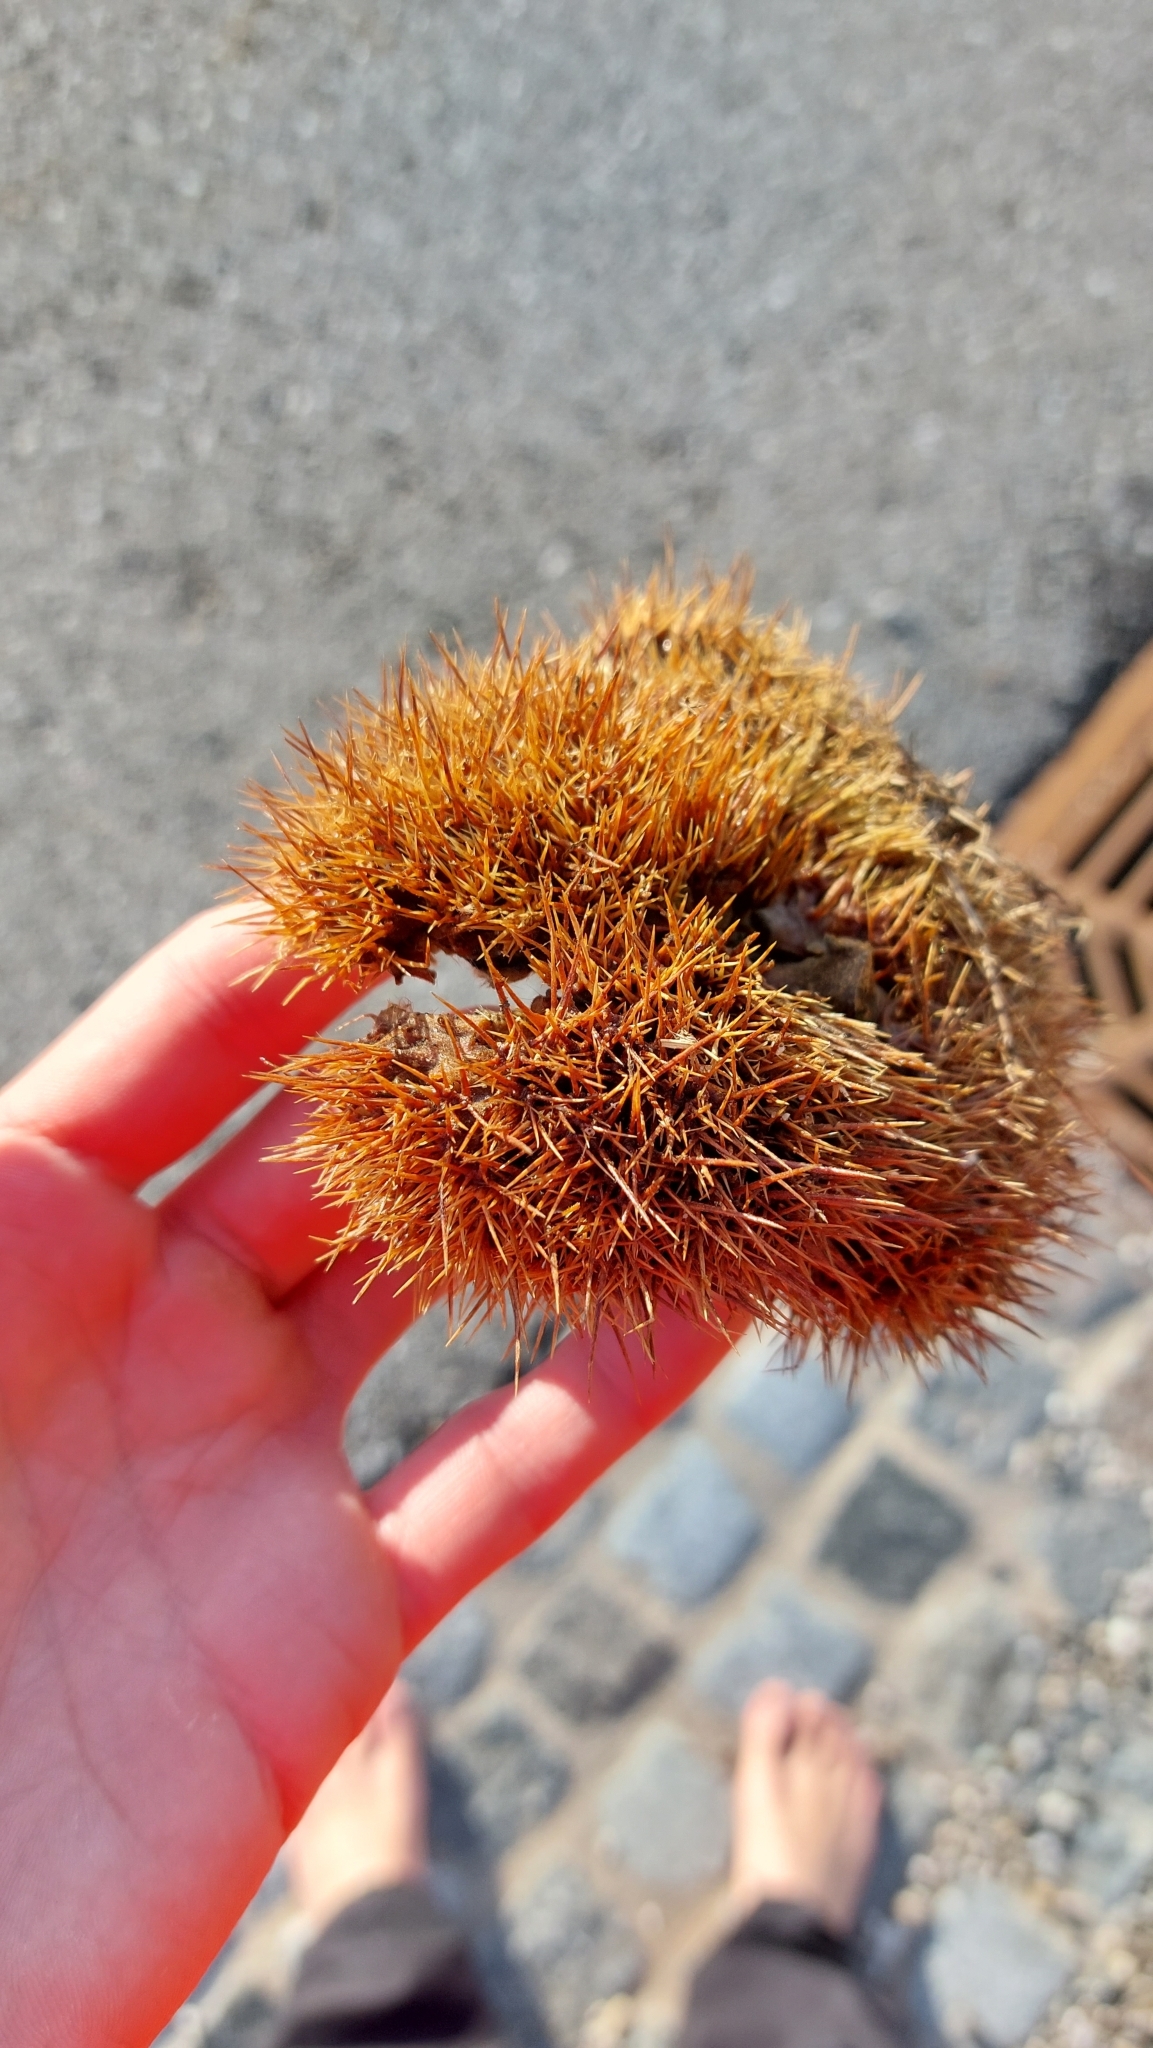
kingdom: Plantae
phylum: Tracheophyta
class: Magnoliopsida
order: Fagales
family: Fagaceae
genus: Castanea
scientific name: Castanea sativa
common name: Sweet chestnut
